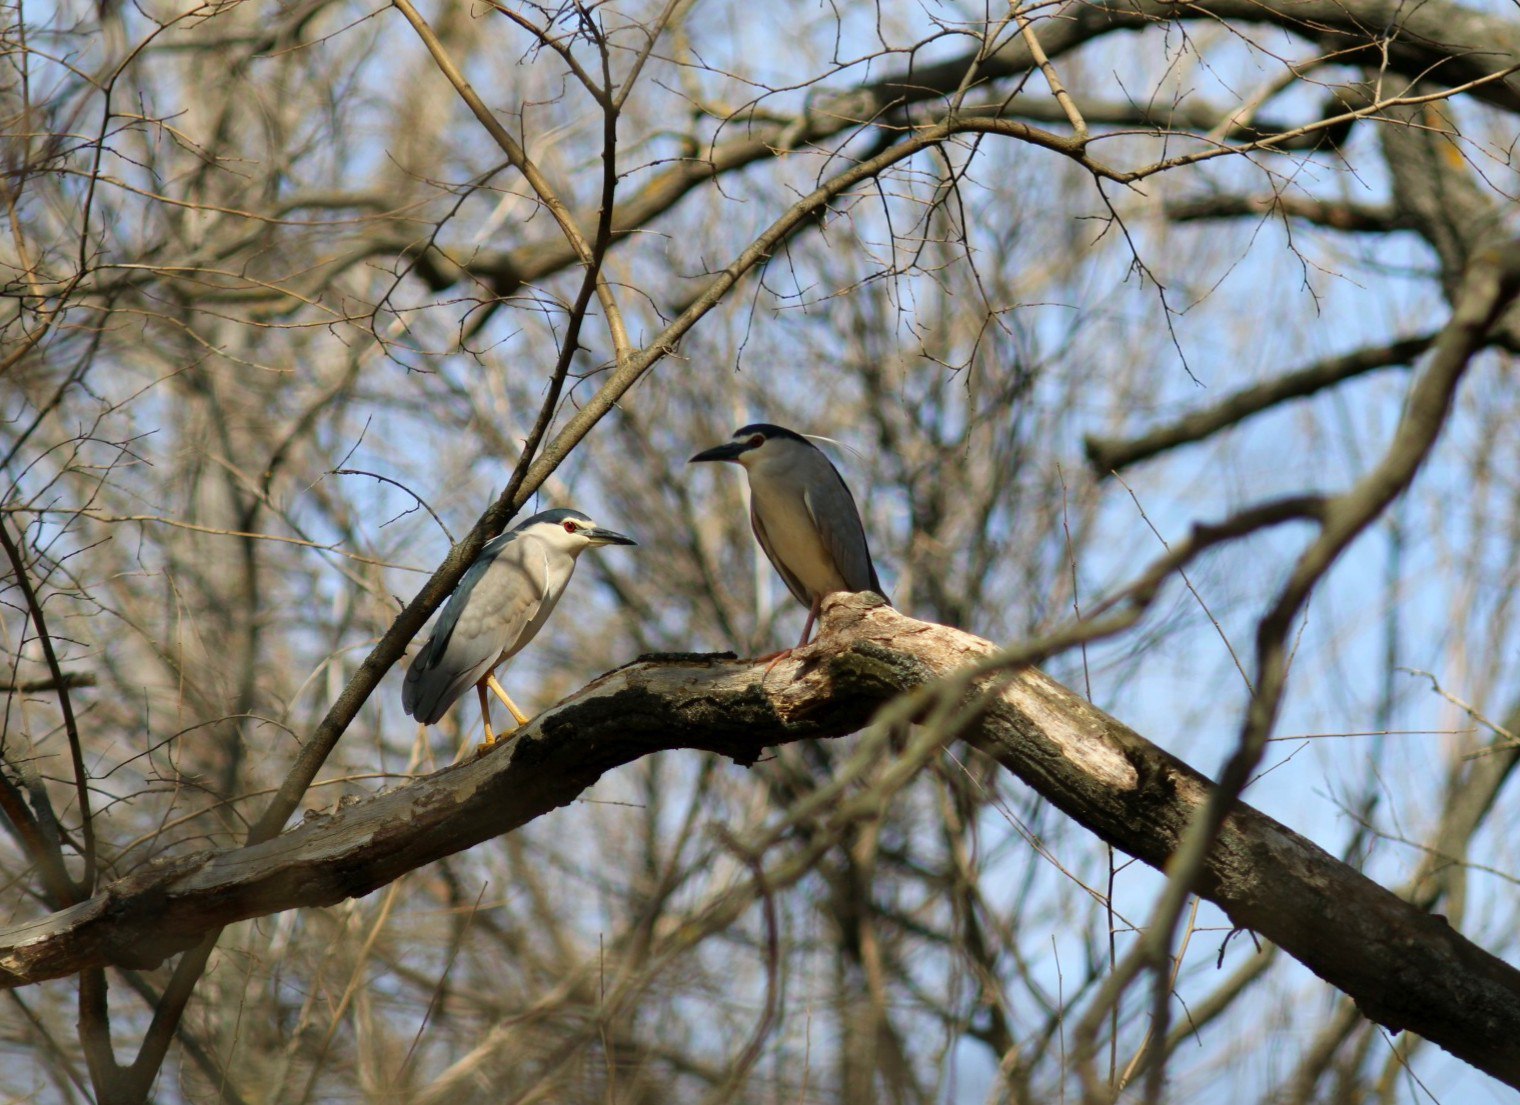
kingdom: Animalia
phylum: Chordata
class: Aves
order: Pelecaniformes
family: Ardeidae
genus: Nycticorax
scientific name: Nycticorax nycticorax
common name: Black-crowned night heron
